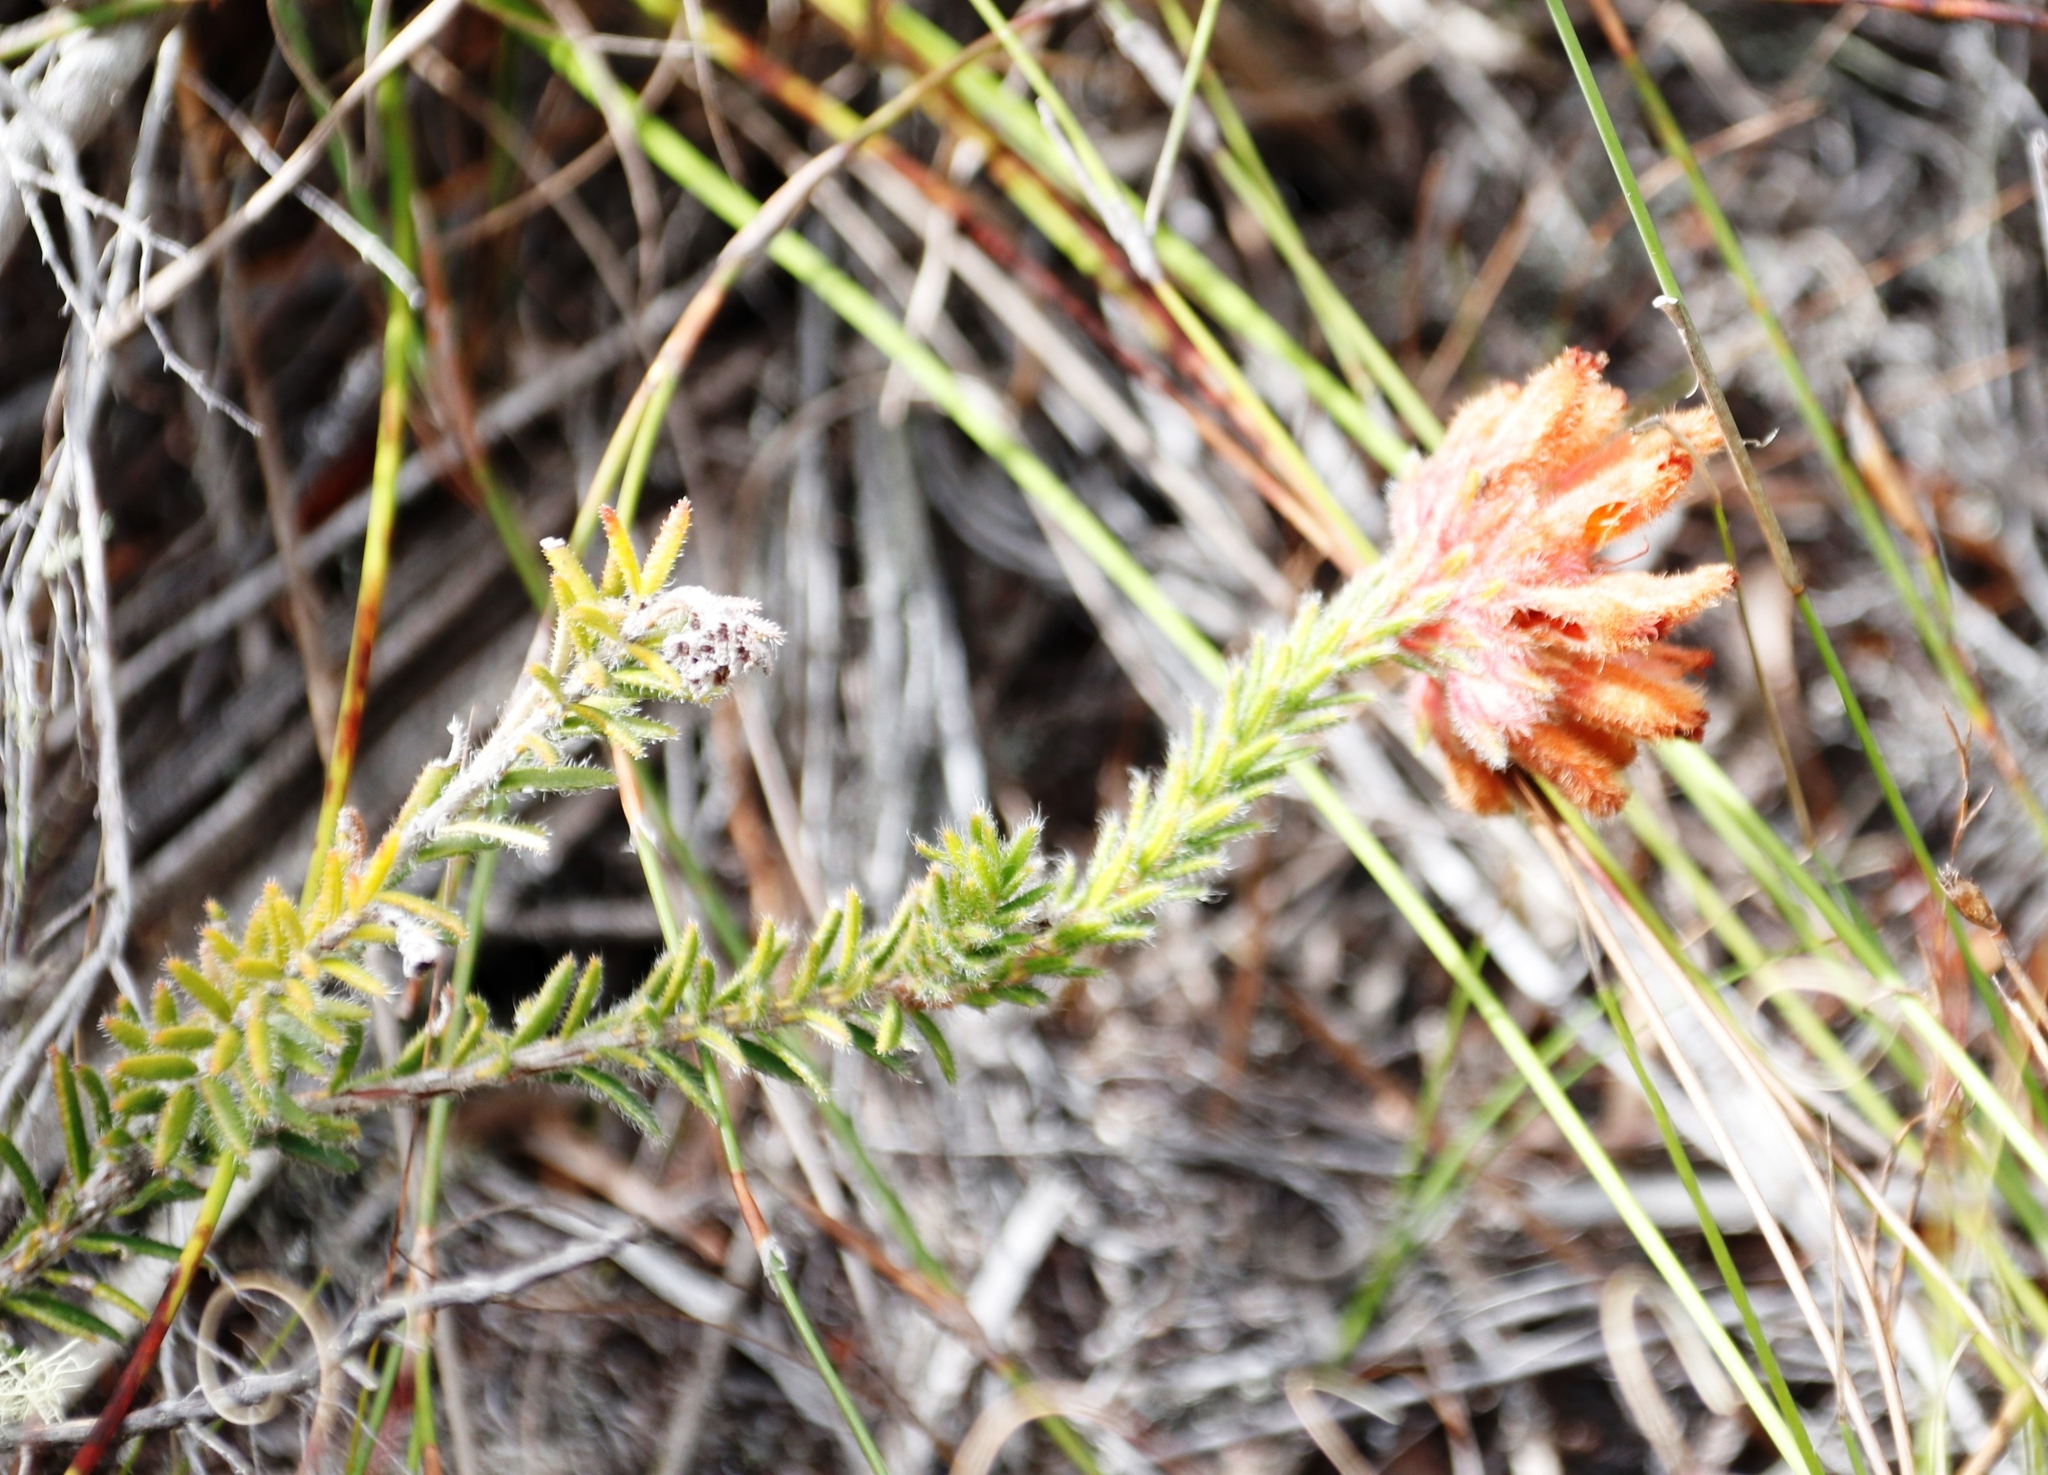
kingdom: Plantae
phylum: Tracheophyta
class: Magnoliopsida
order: Ericales
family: Ericaceae
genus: Erica
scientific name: Erica cerinthoides
